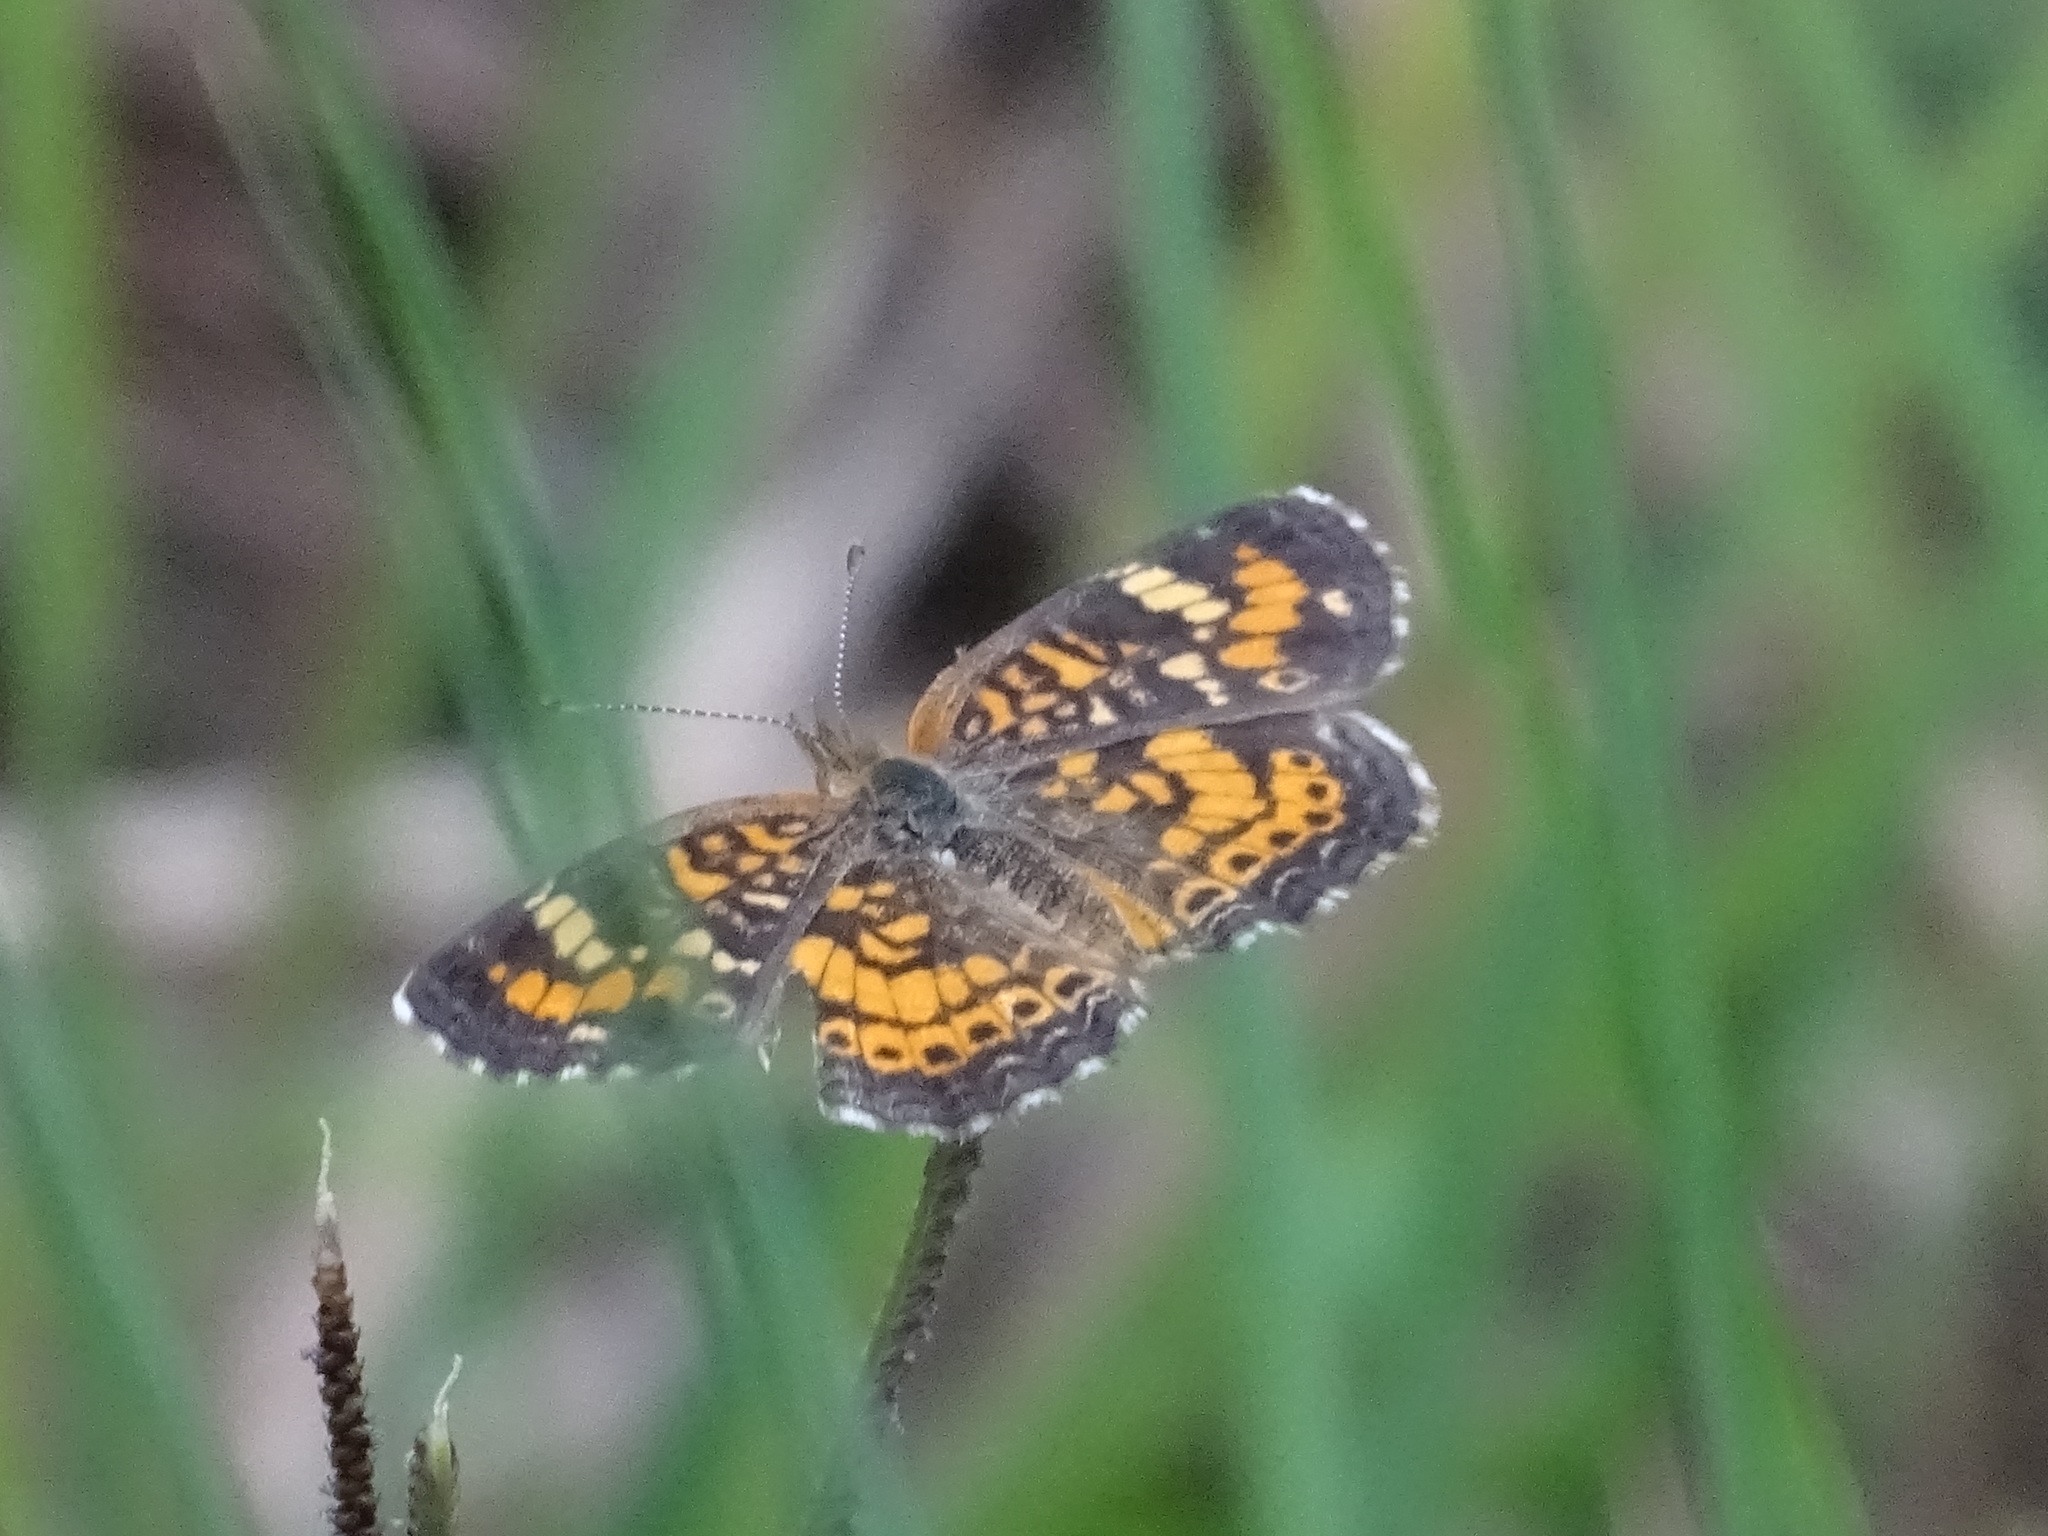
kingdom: Animalia
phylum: Arthropoda
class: Insecta
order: Lepidoptera
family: Nymphalidae
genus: Phyciodes
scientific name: Phyciodes phaon
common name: Phaon crescent
